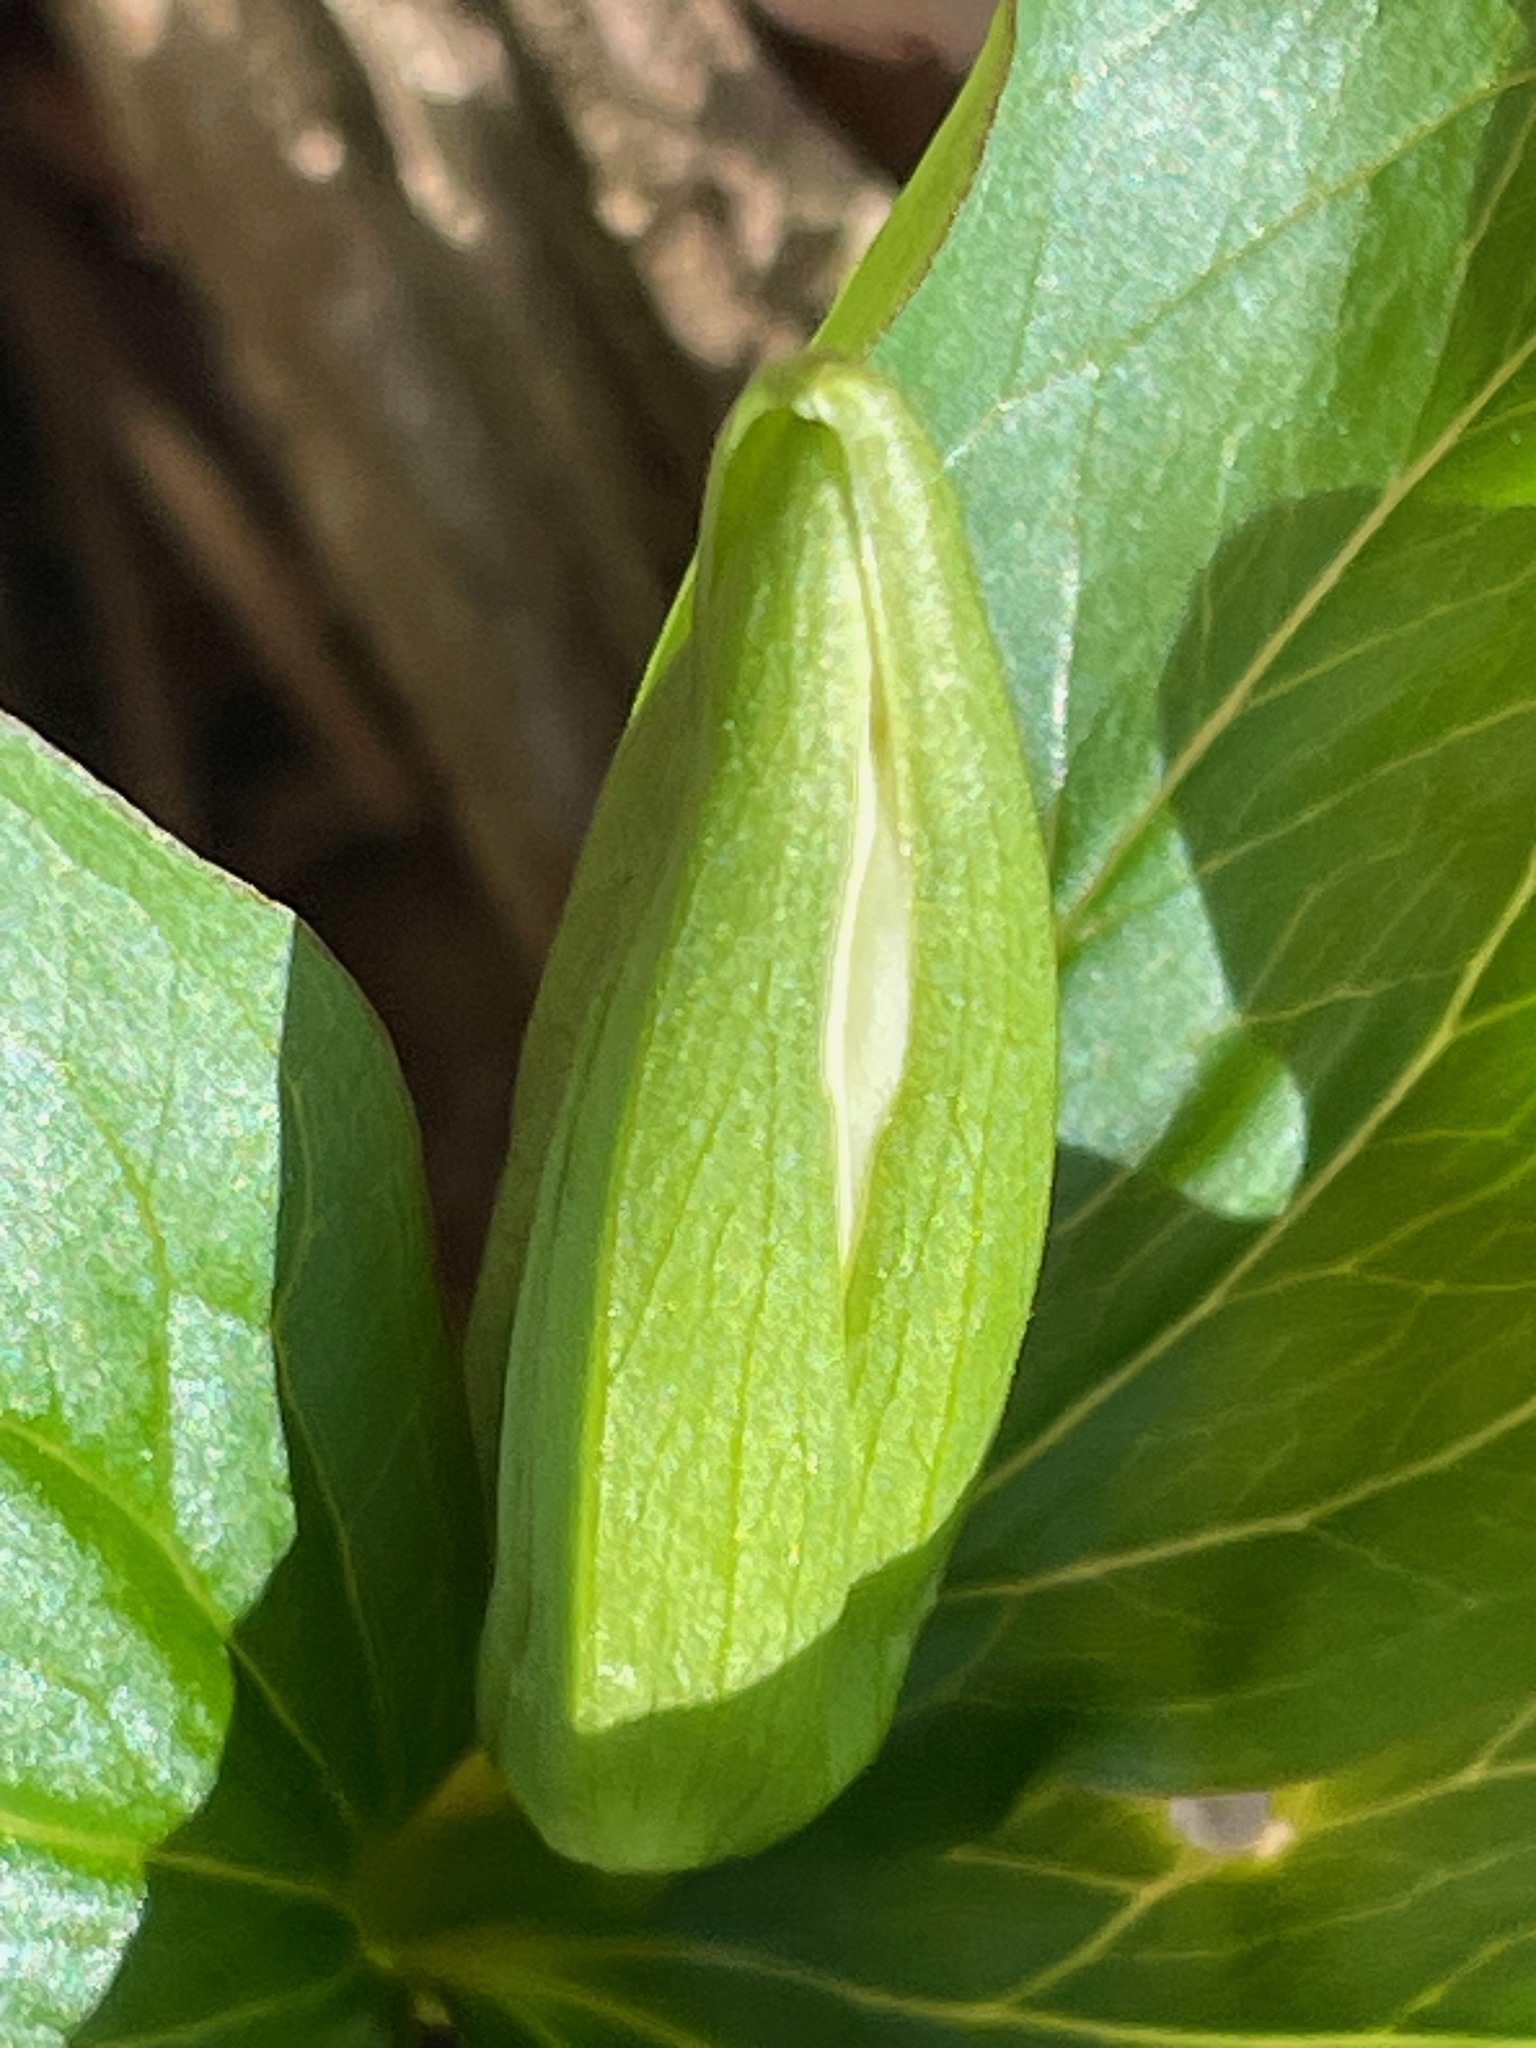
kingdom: Plantae
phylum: Tracheophyta
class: Liliopsida
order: Liliales
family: Melanthiaceae
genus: Trillium
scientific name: Trillium grandiflorum
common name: Great white trillium
